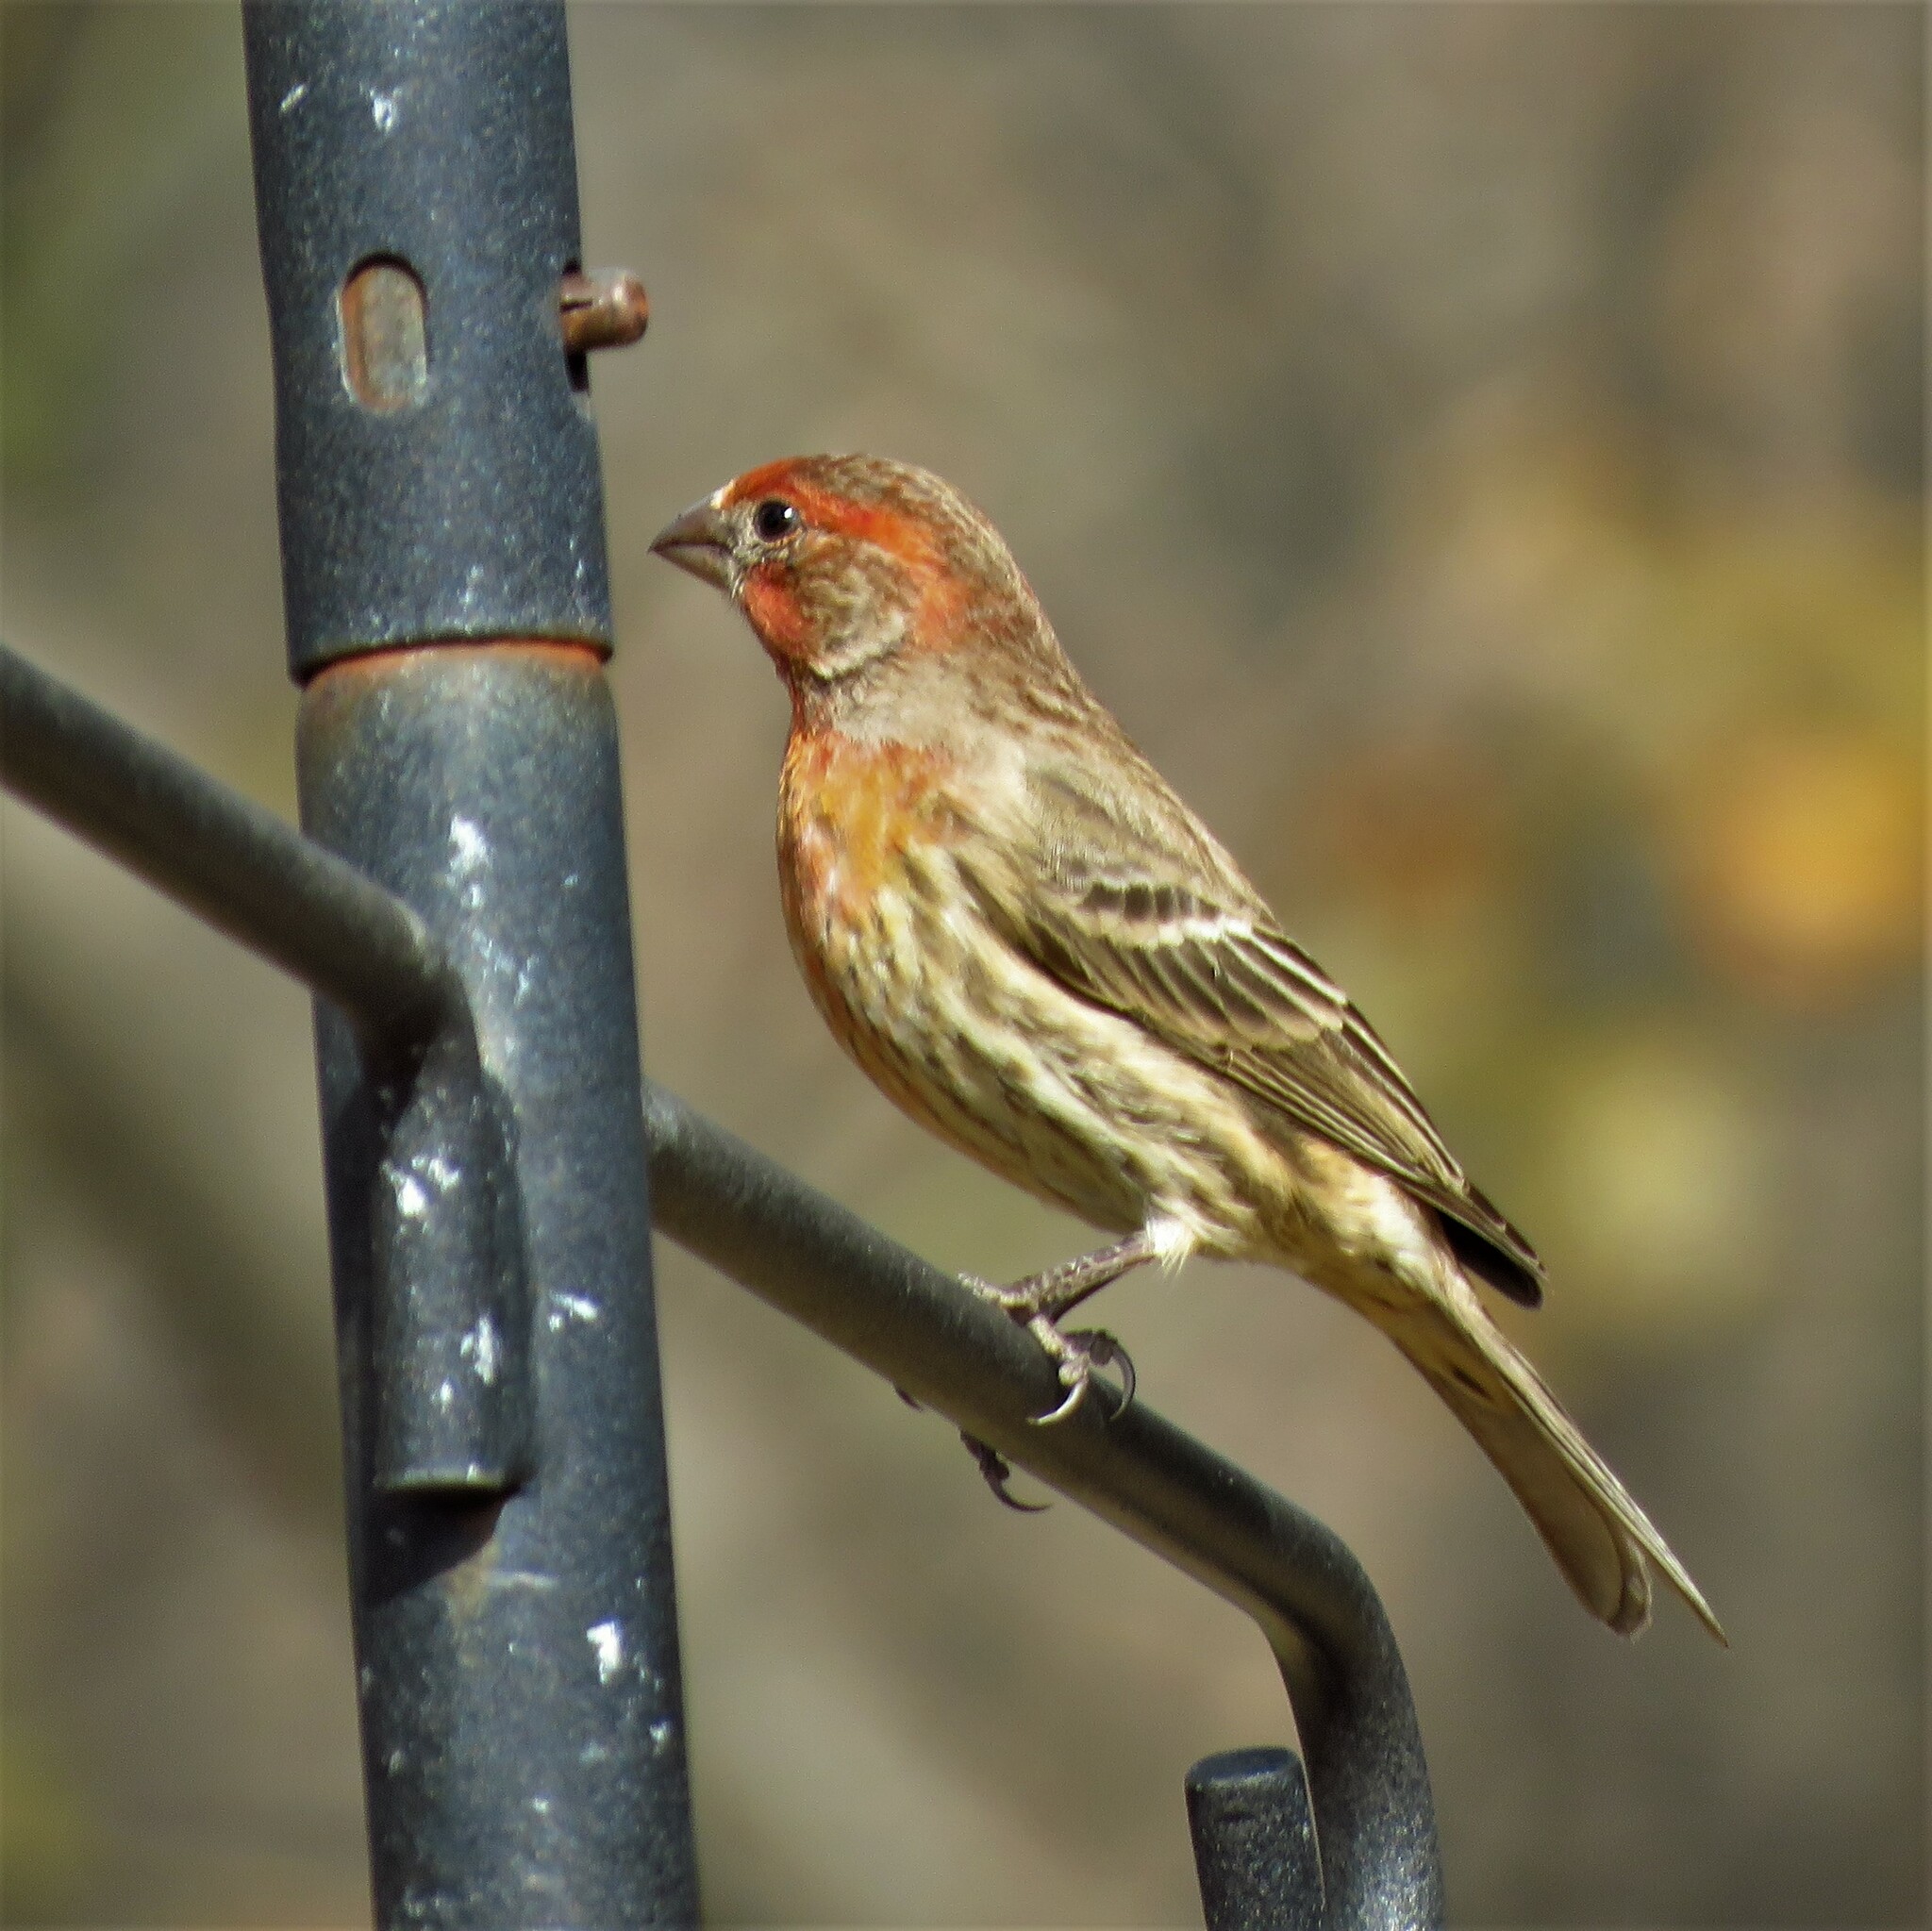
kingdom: Animalia
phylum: Chordata
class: Aves
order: Passeriformes
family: Fringillidae
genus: Haemorhous
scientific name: Haemorhous mexicanus
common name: House finch
